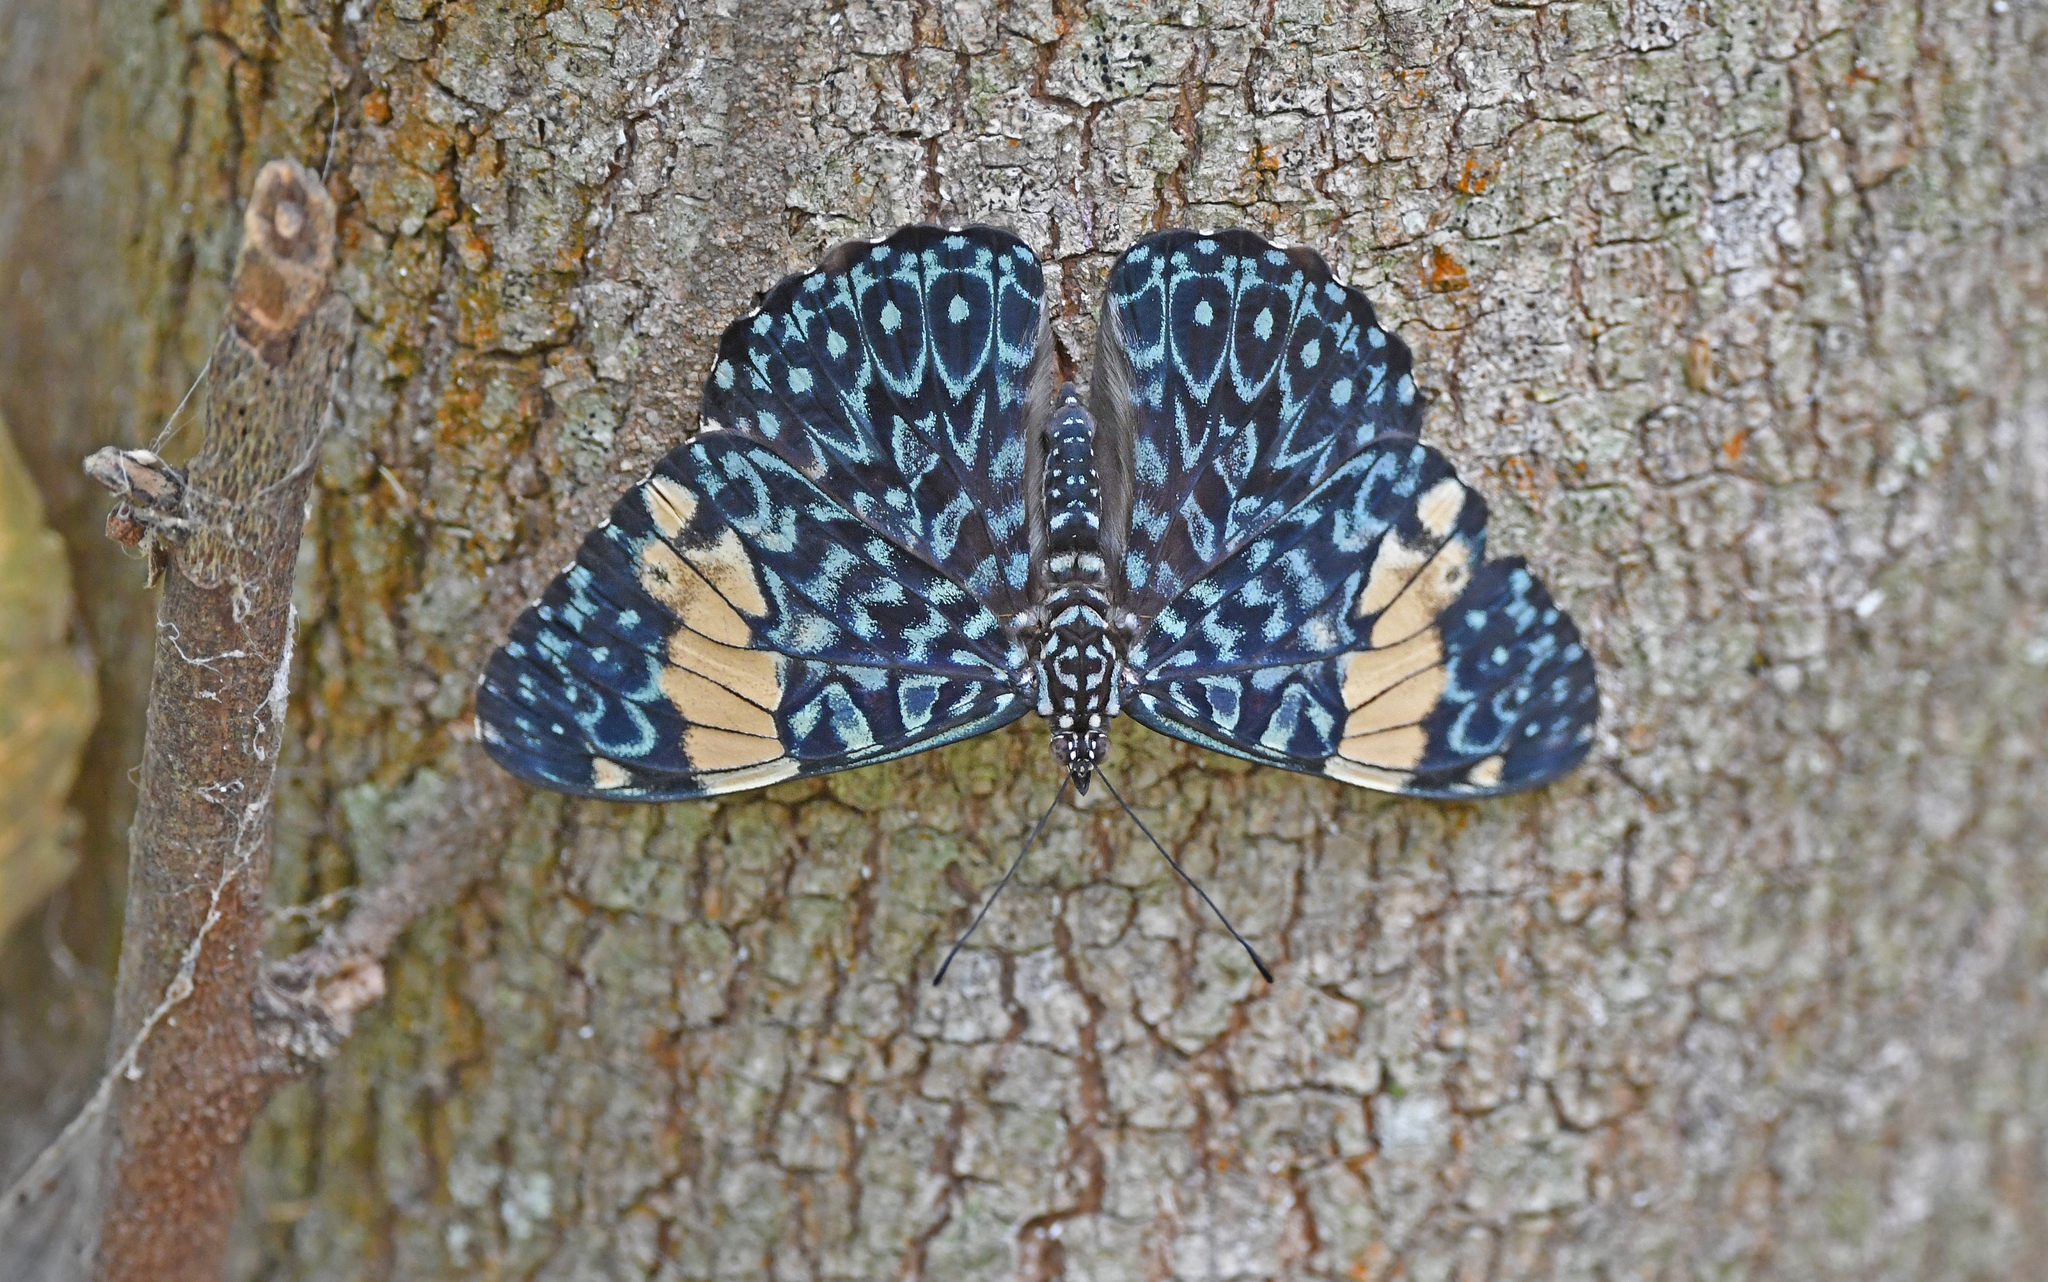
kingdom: Animalia
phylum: Arthropoda
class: Insecta
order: Lepidoptera
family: Nymphalidae
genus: Hamadryas
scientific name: Hamadryas amphinome
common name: Red cracker
